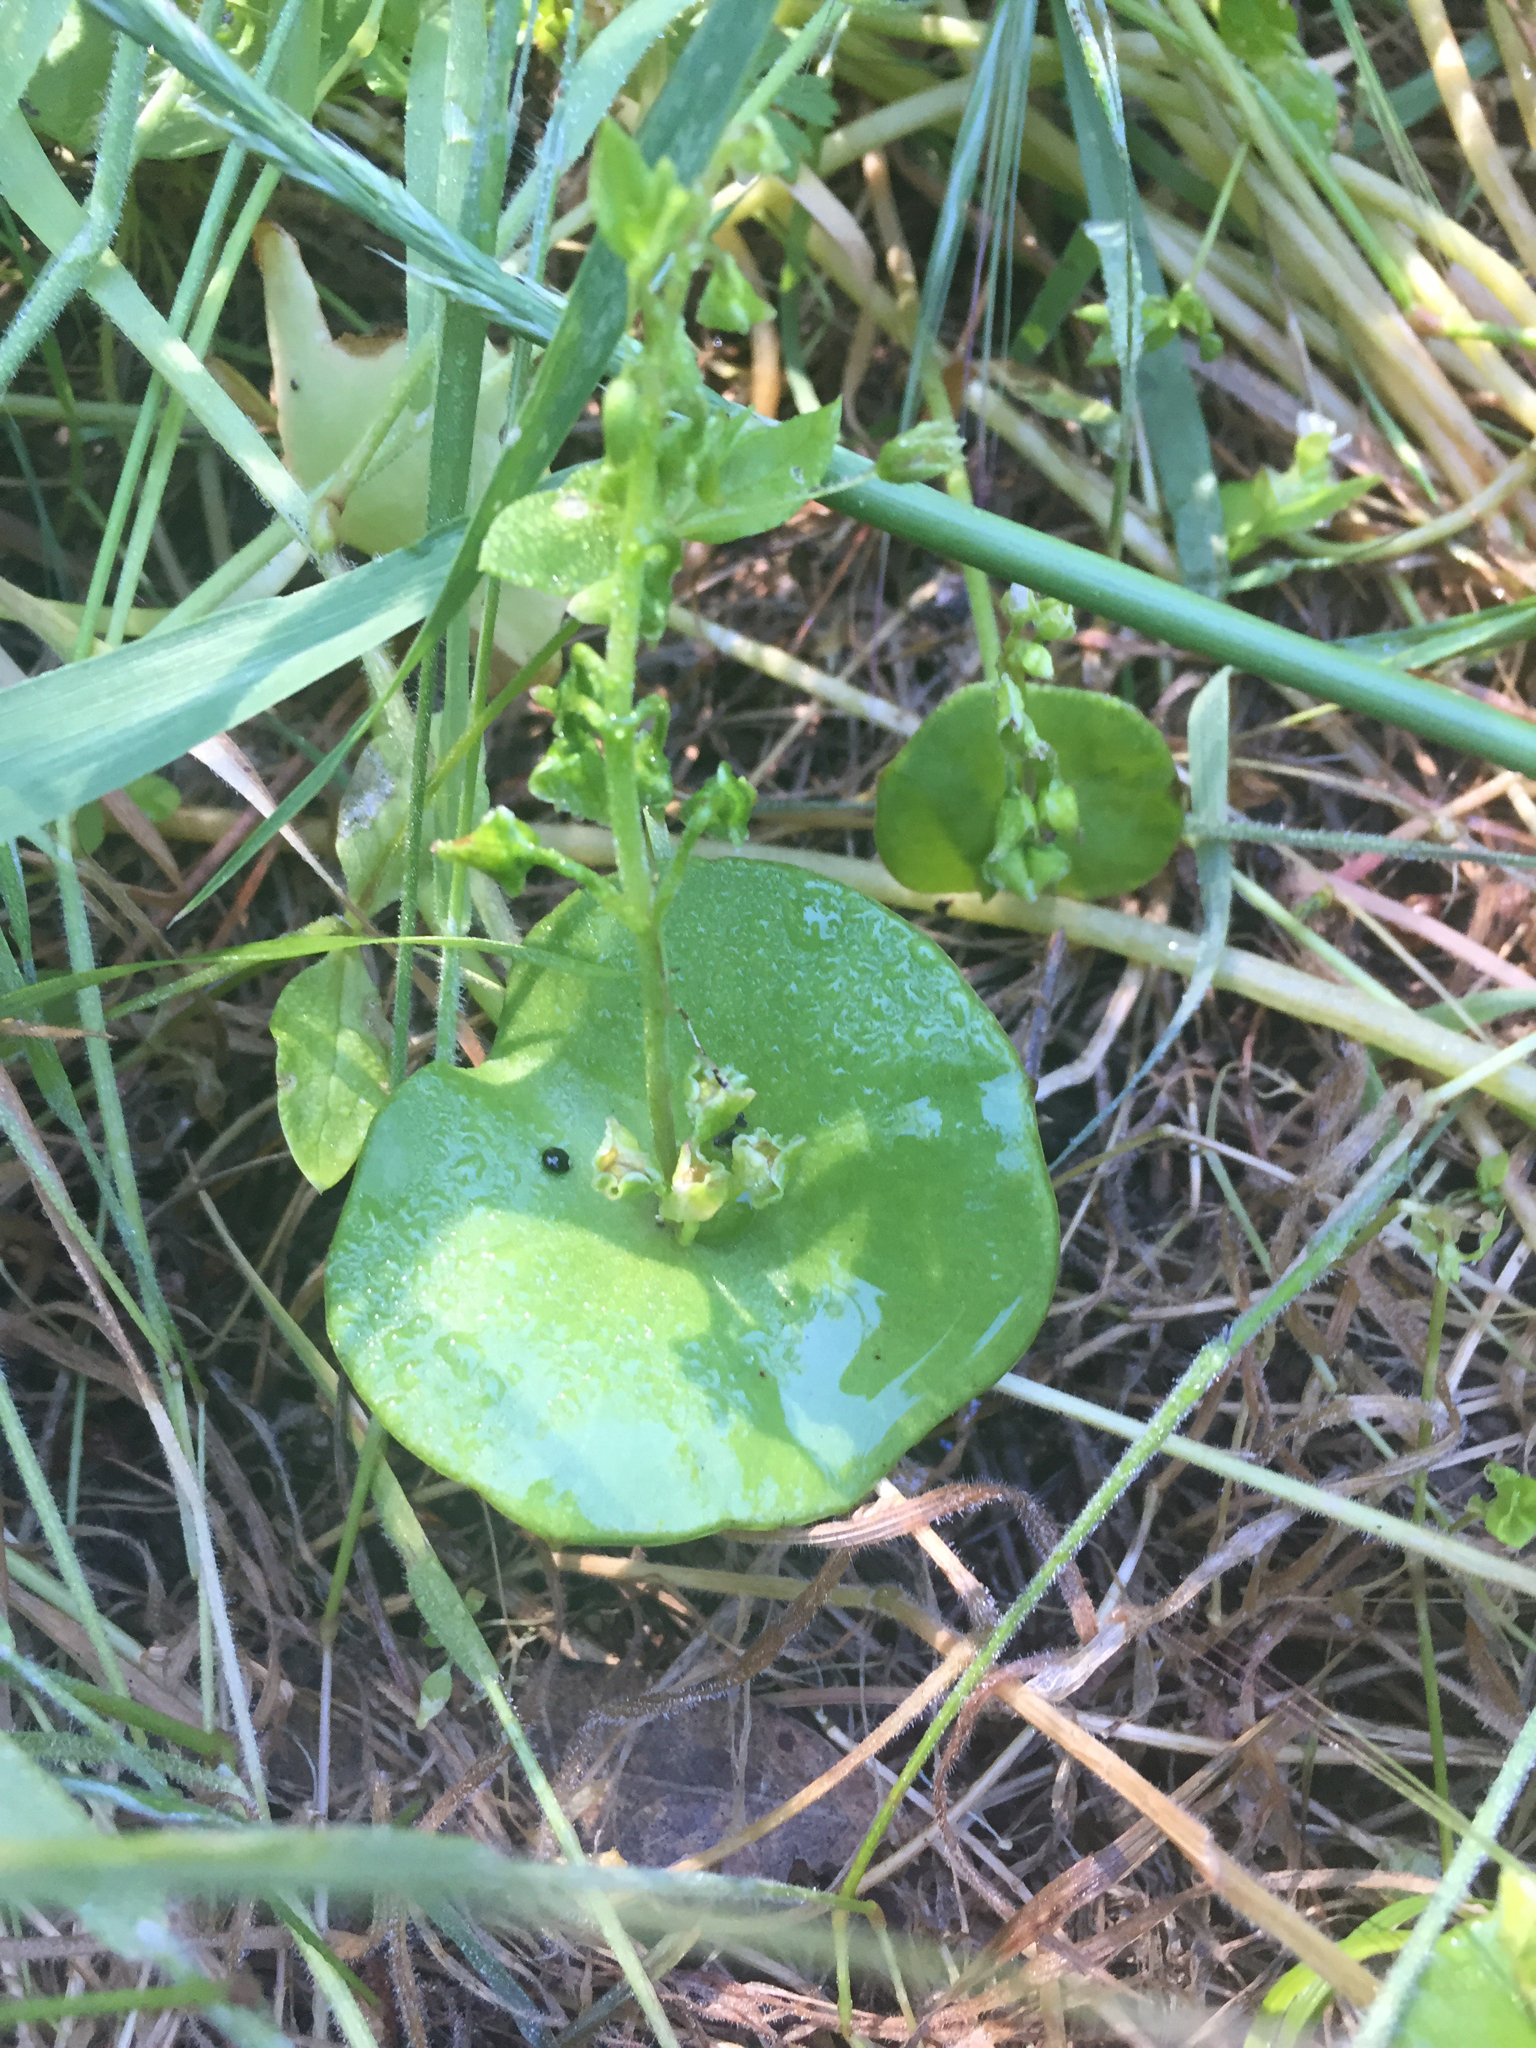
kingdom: Plantae
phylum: Tracheophyta
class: Magnoliopsida
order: Caryophyllales
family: Montiaceae
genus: Claytonia
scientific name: Claytonia perfoliata
